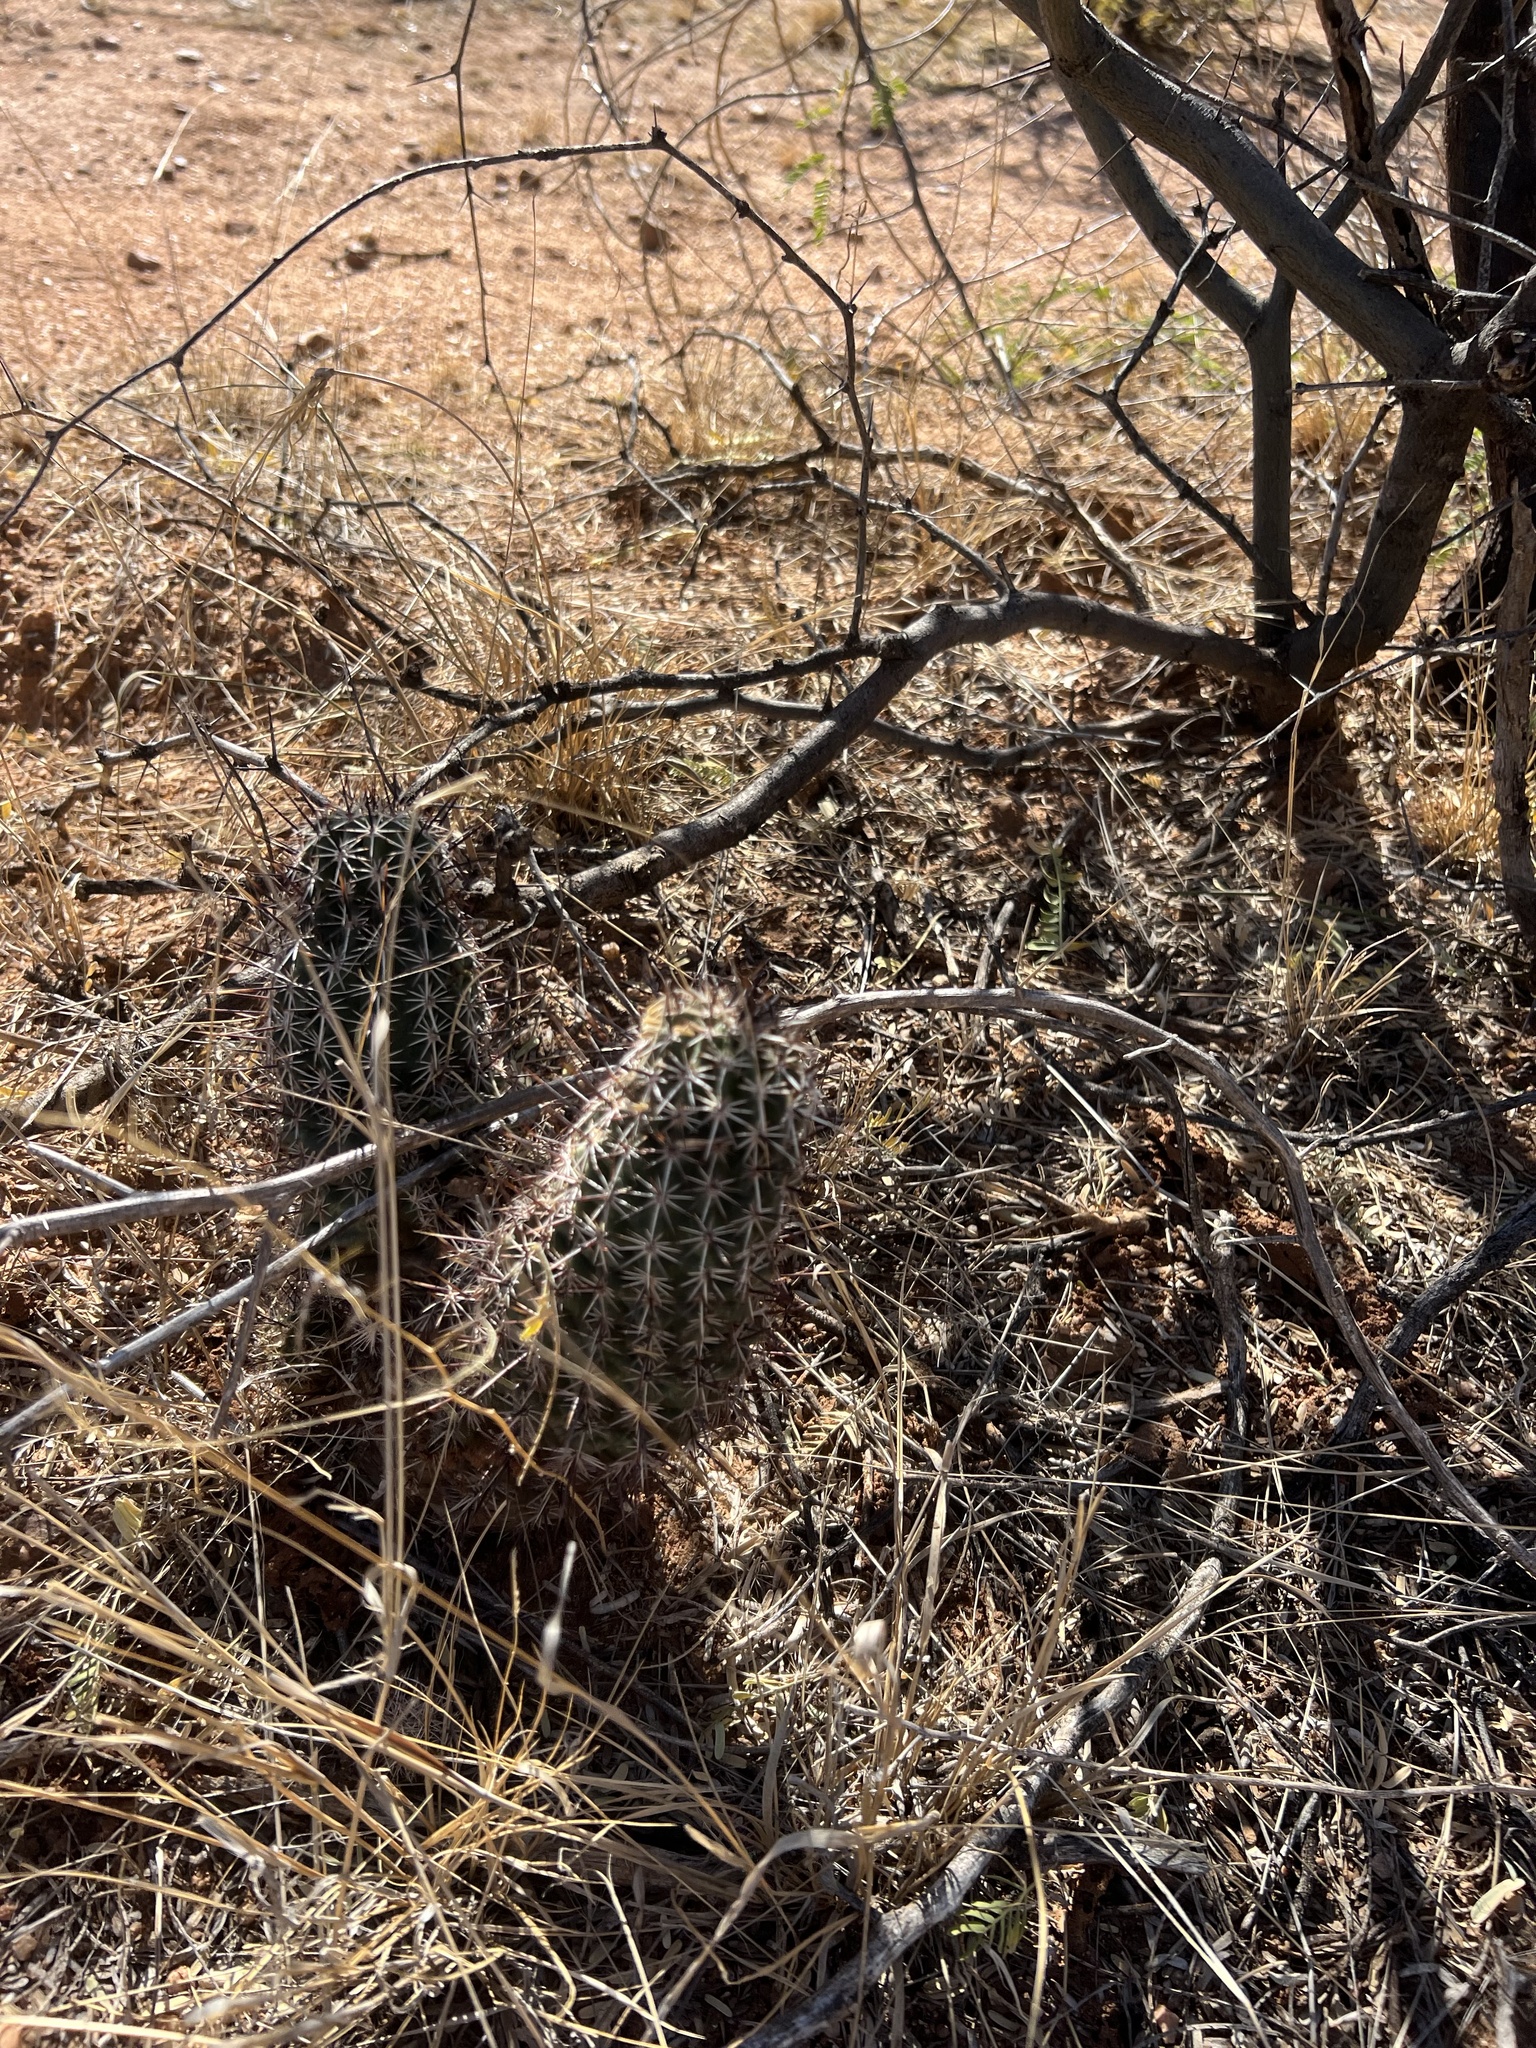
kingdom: Plantae
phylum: Tracheophyta
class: Magnoliopsida
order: Caryophyllales
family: Cactaceae
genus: Echinocereus
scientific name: Echinocereus fendleri
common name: Fendler's hedgehog cactus
